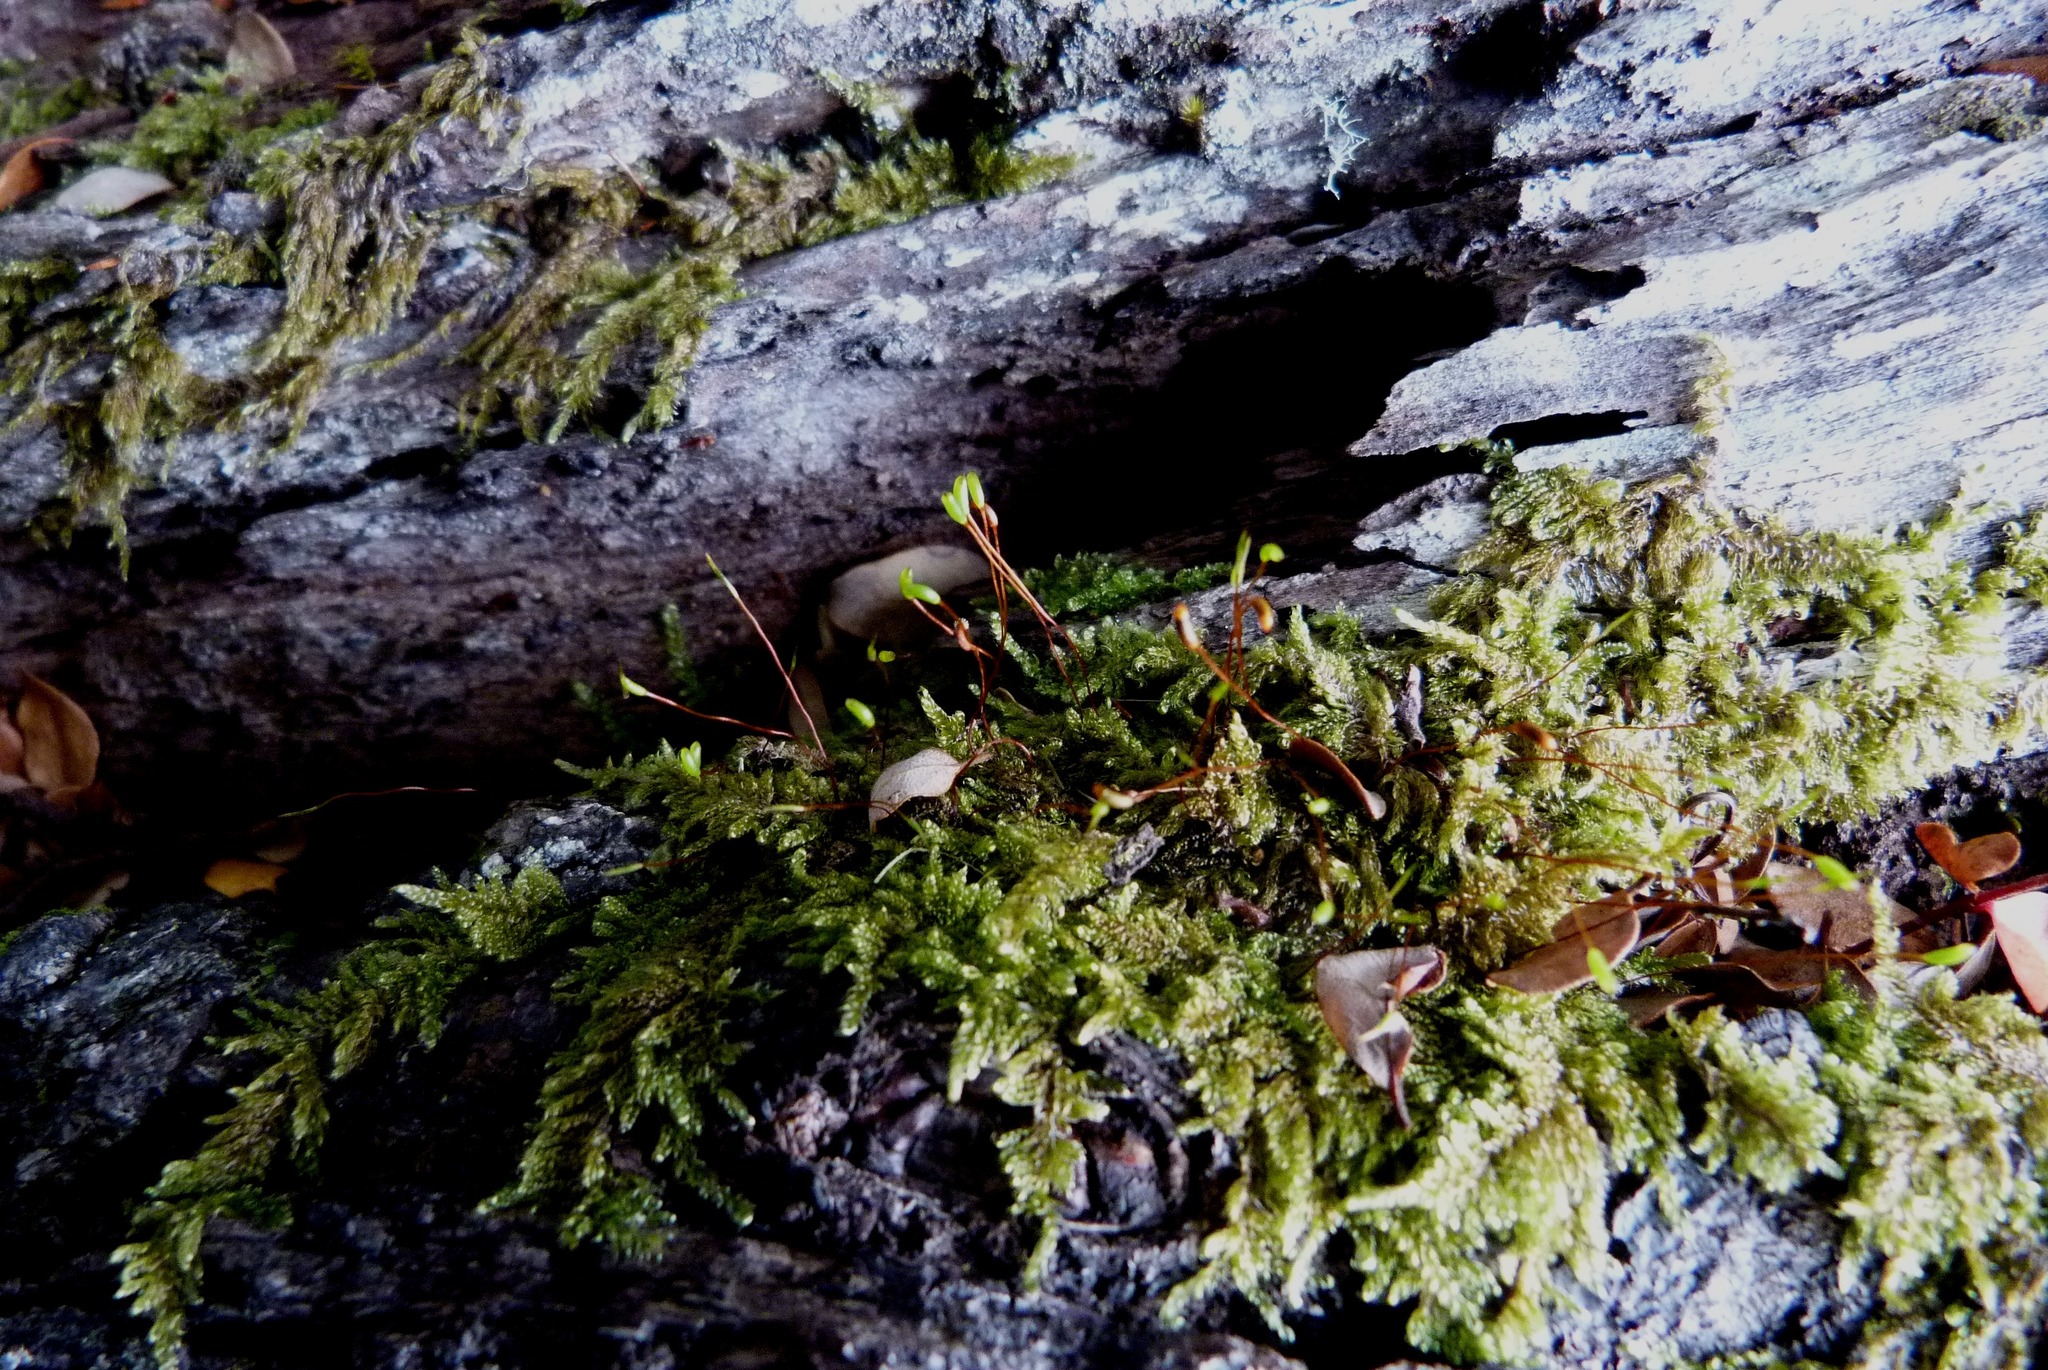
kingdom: Plantae
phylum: Bryophyta
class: Bryopsida
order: Hypnales
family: Hypnaceae
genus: Hypnum
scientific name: Hypnum cupressiforme
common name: Cypress-leaved plait-moss
